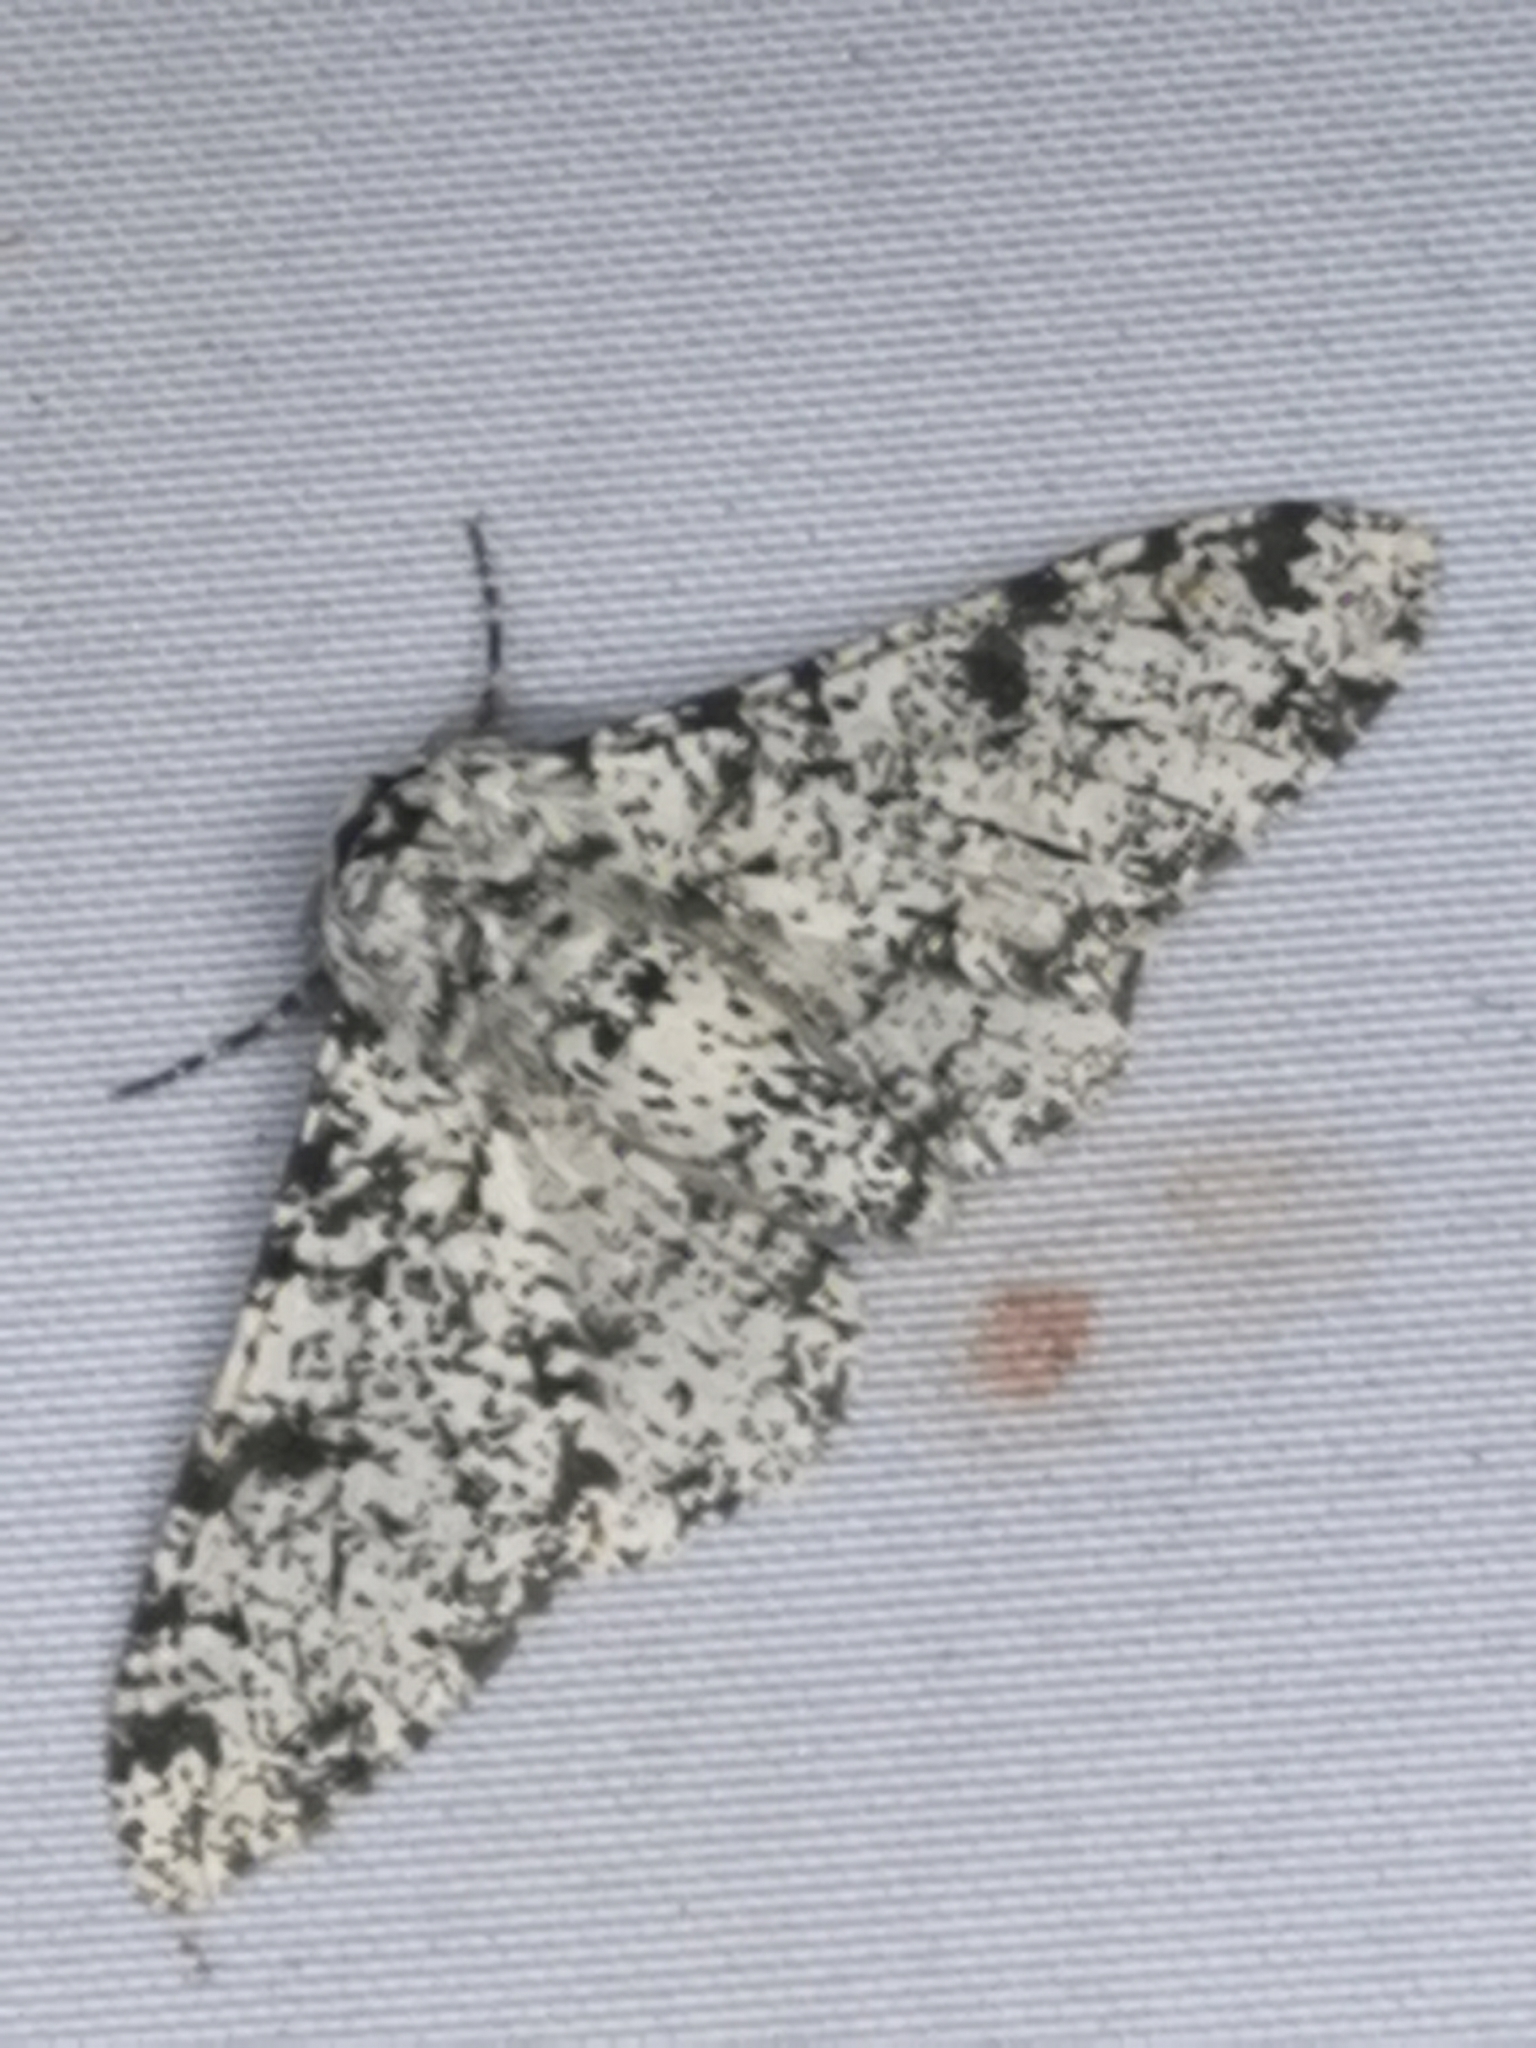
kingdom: Animalia
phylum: Arthropoda
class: Insecta
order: Lepidoptera
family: Geometridae
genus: Biston
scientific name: Biston betularia
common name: Peppered moth
